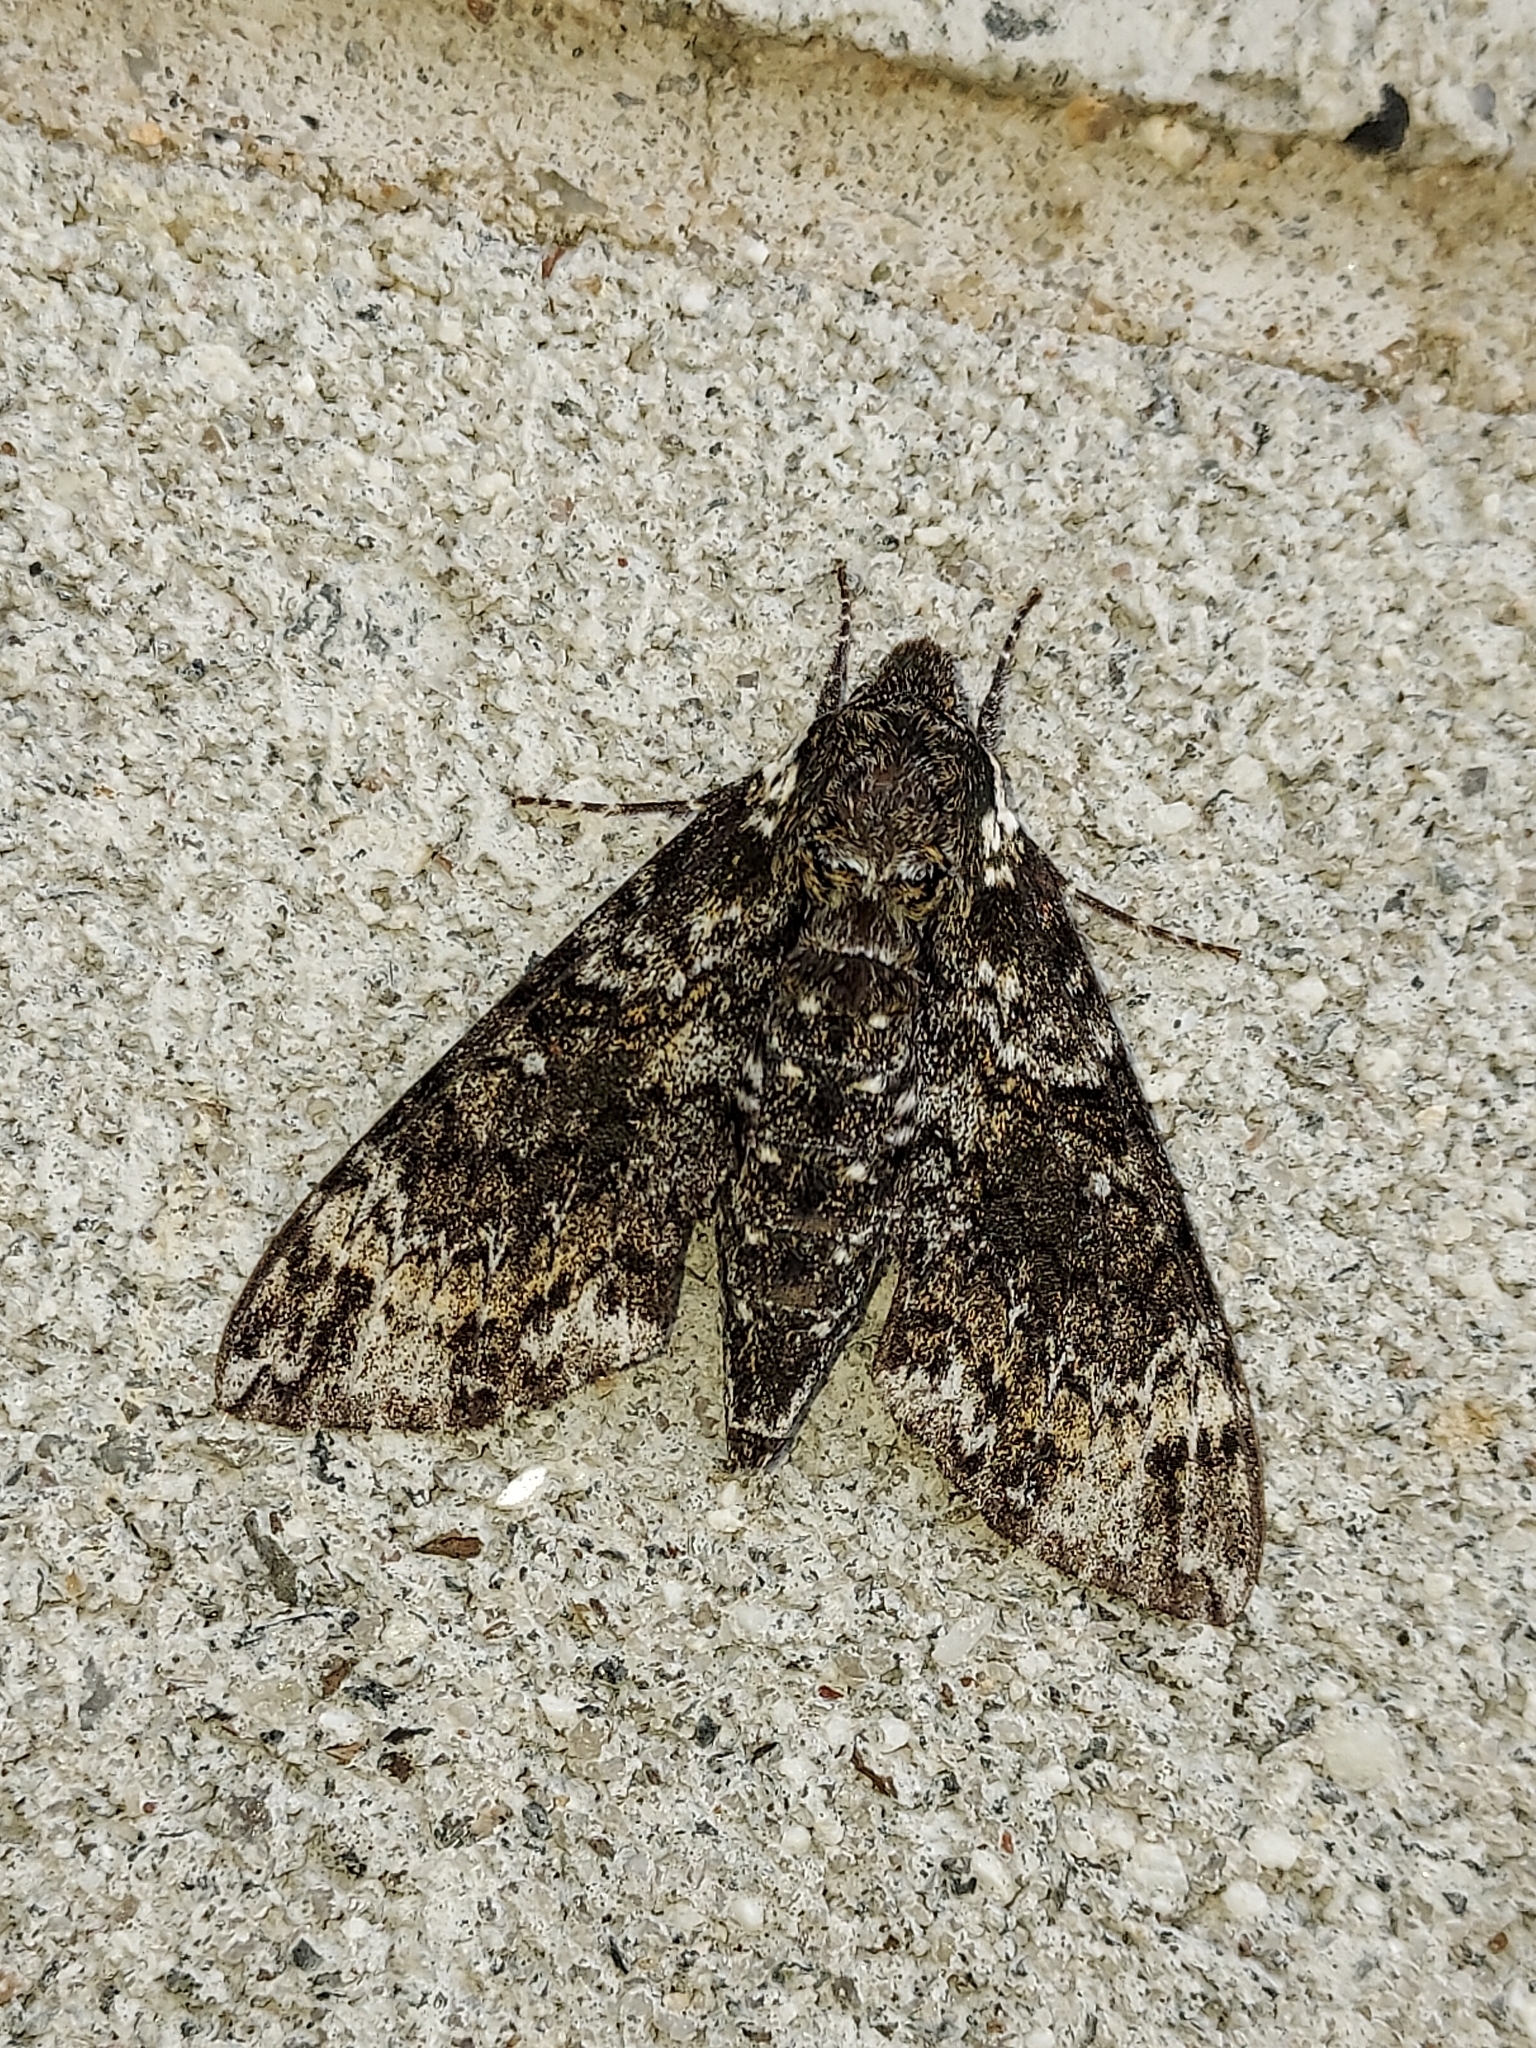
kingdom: Animalia
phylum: Arthropoda
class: Insecta
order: Lepidoptera
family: Sphingidae
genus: Dolba
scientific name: Dolba hyloeus
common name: Pawpaw sphinx
